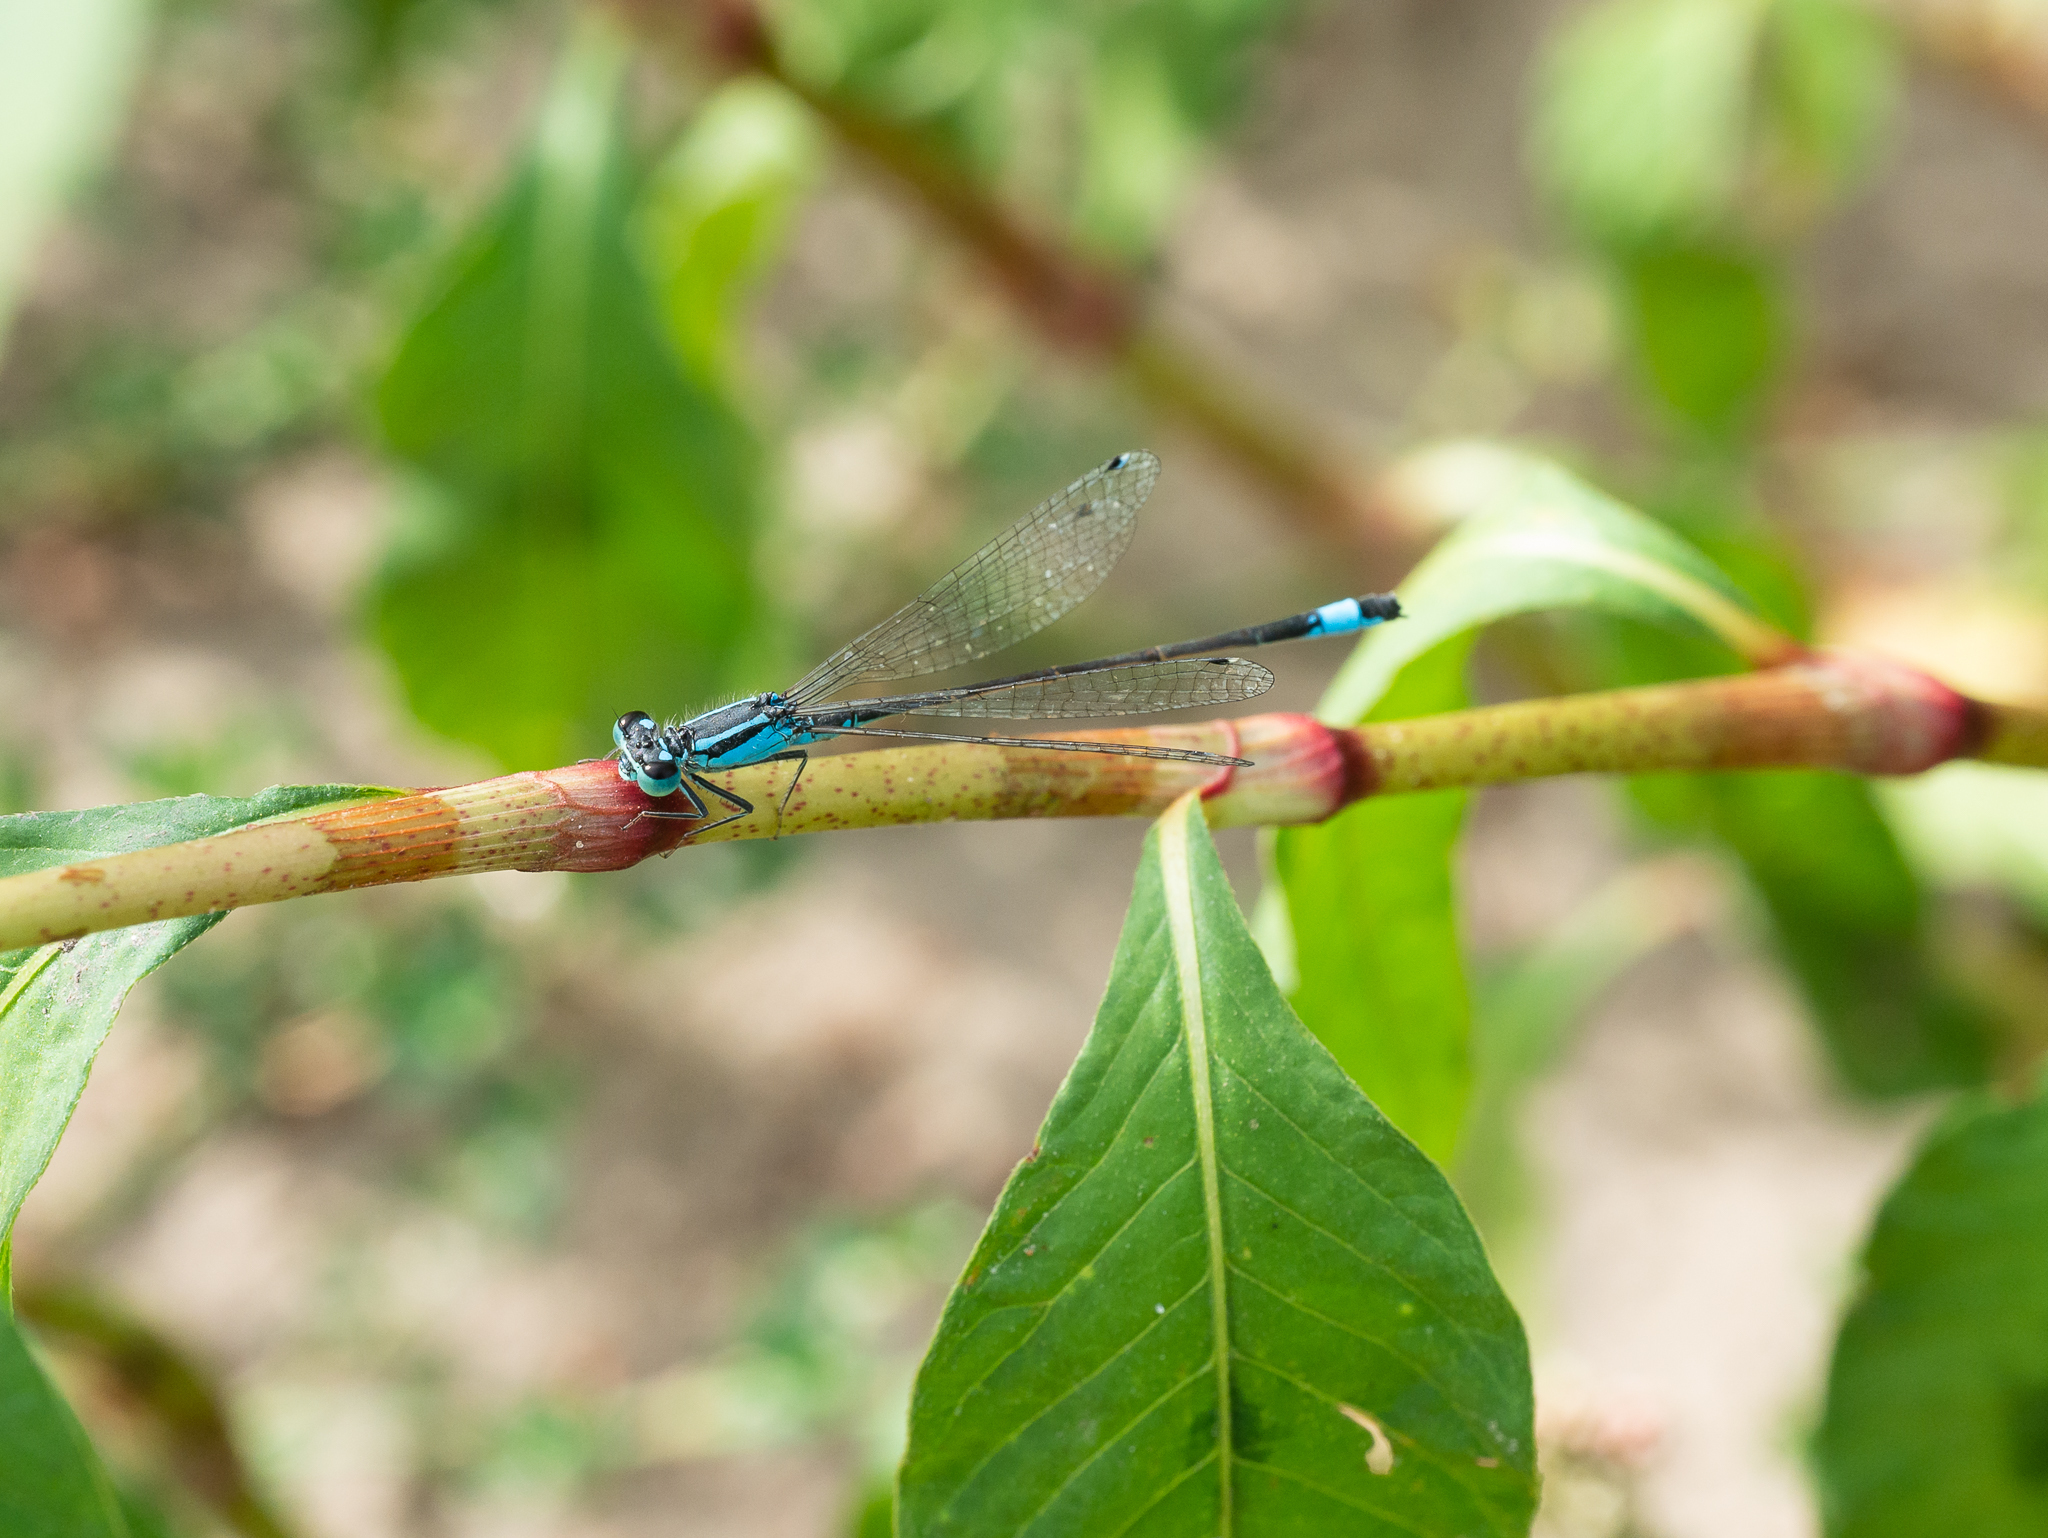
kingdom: Animalia
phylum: Arthropoda
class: Insecta
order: Odonata
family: Coenagrionidae
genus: Ischnura
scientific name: Ischnura elegans
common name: Blue-tailed damselfly
